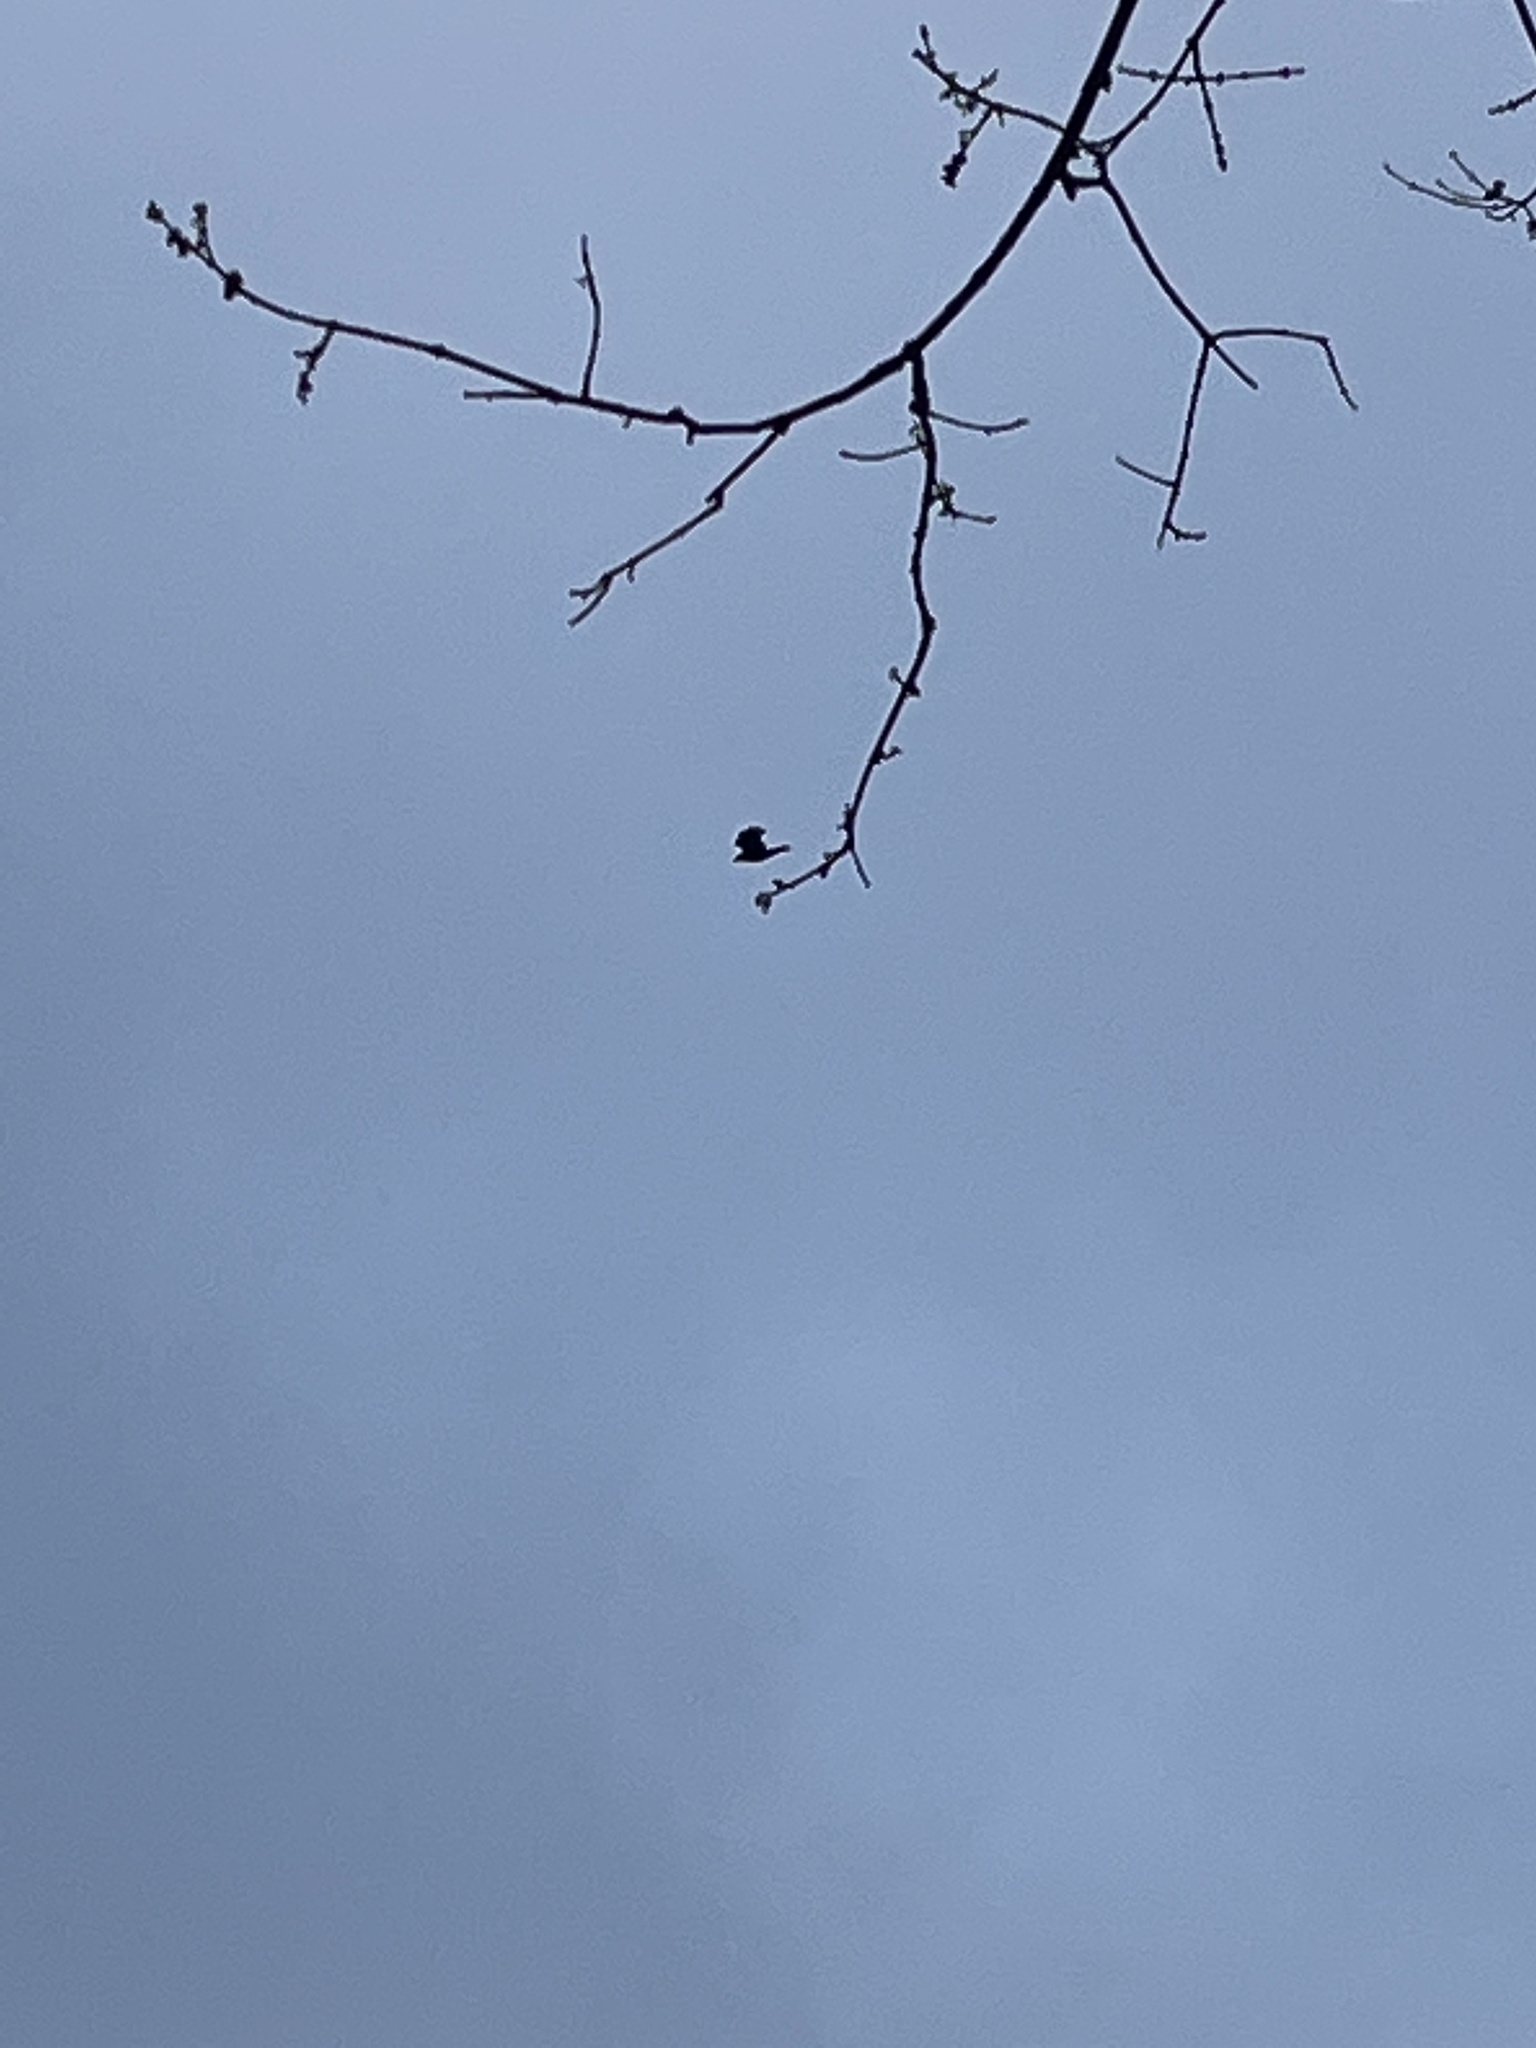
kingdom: Animalia
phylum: Chordata
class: Aves
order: Passeriformes
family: Corvidae
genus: Corvus
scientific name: Corvus brachyrhynchos
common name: American crow
